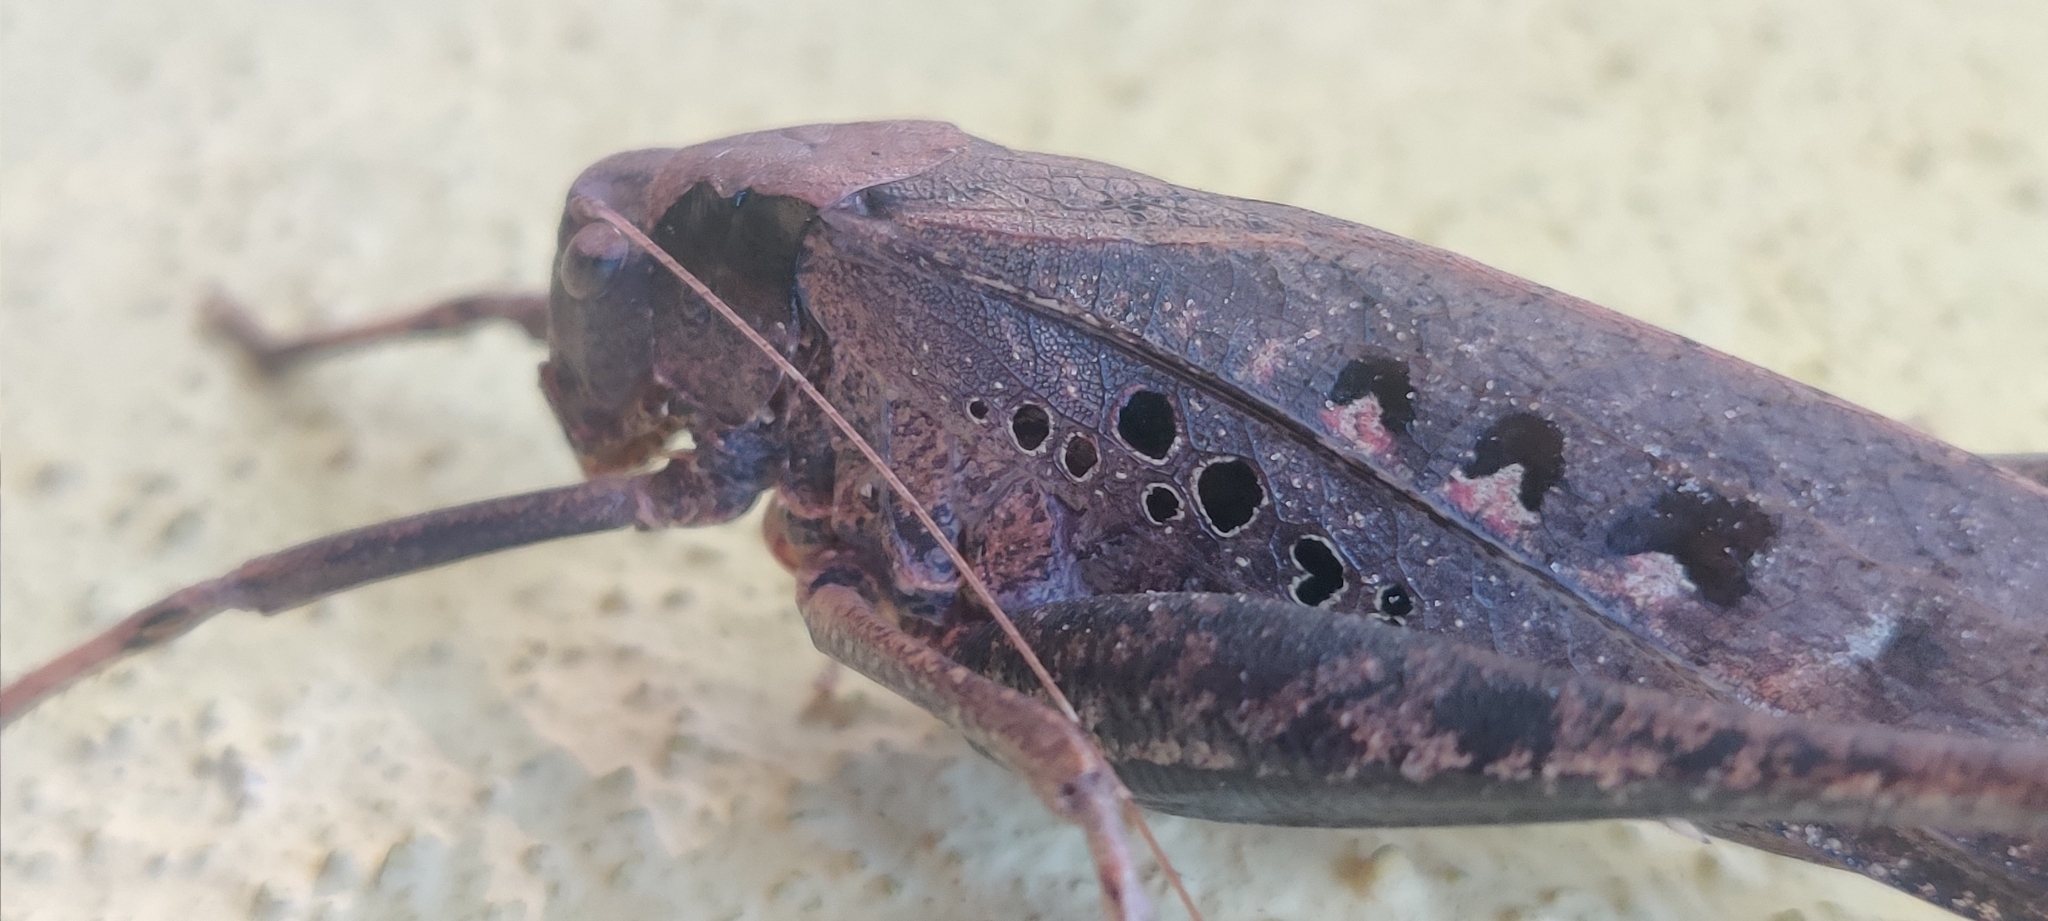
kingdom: Animalia
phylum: Arthropoda
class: Insecta
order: Orthoptera
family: Tettigoniidae
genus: Mecopoda
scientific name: Mecopoda elongata
